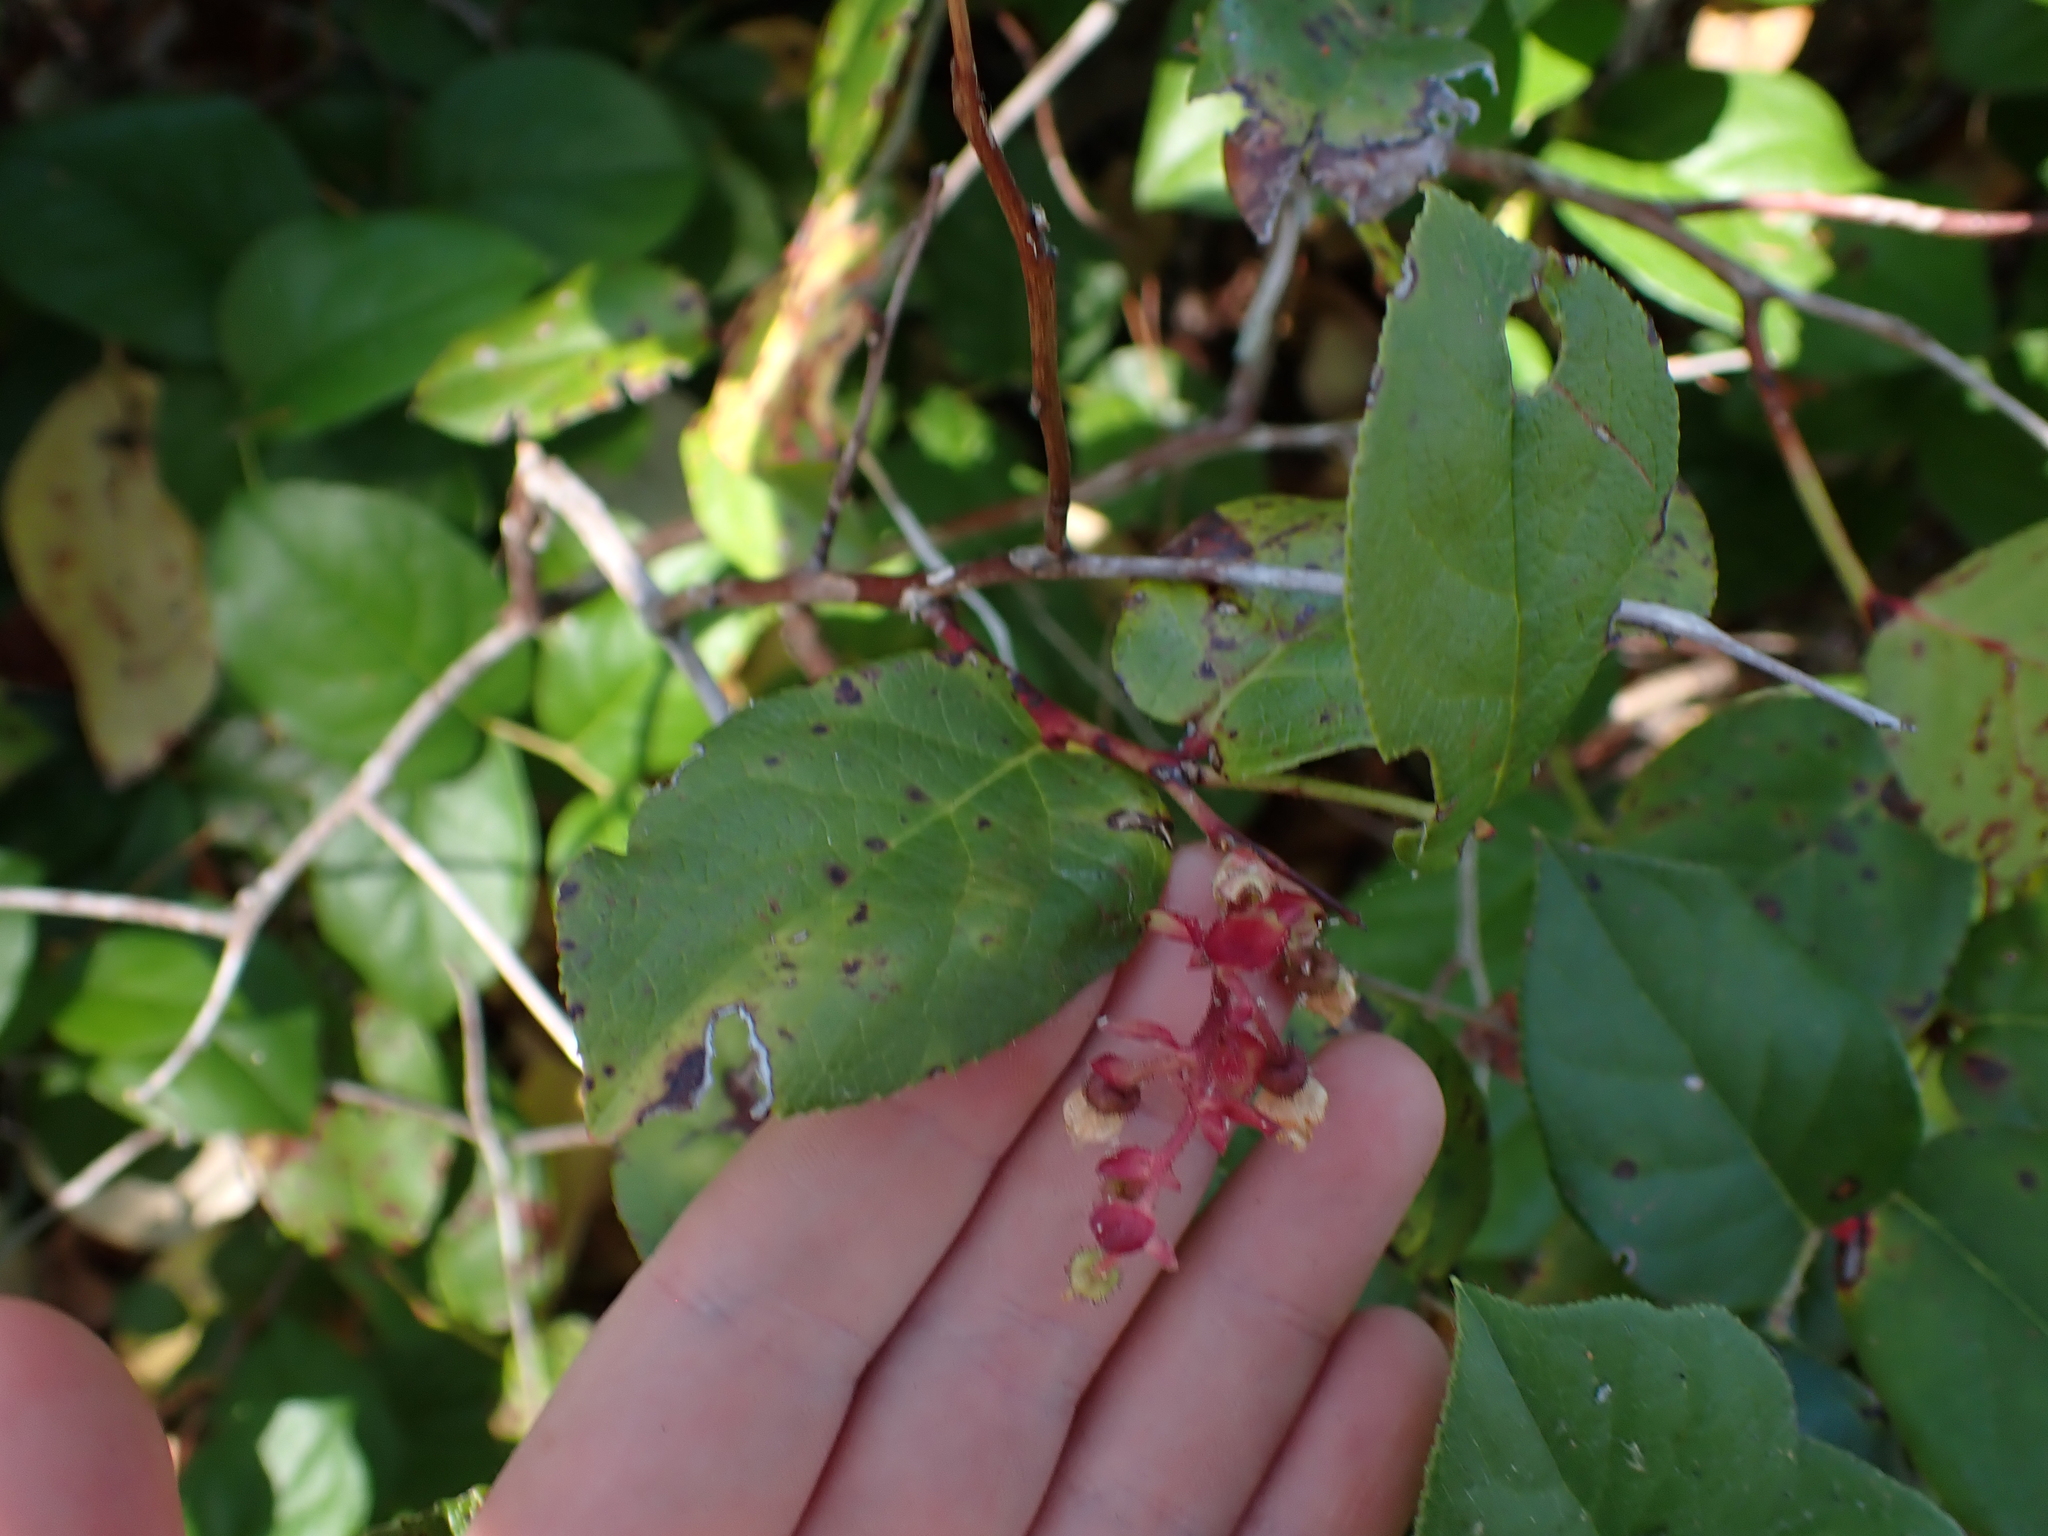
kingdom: Plantae
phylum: Tracheophyta
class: Magnoliopsida
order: Ericales
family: Ericaceae
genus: Gaultheria
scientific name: Gaultheria shallon
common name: Shallon
